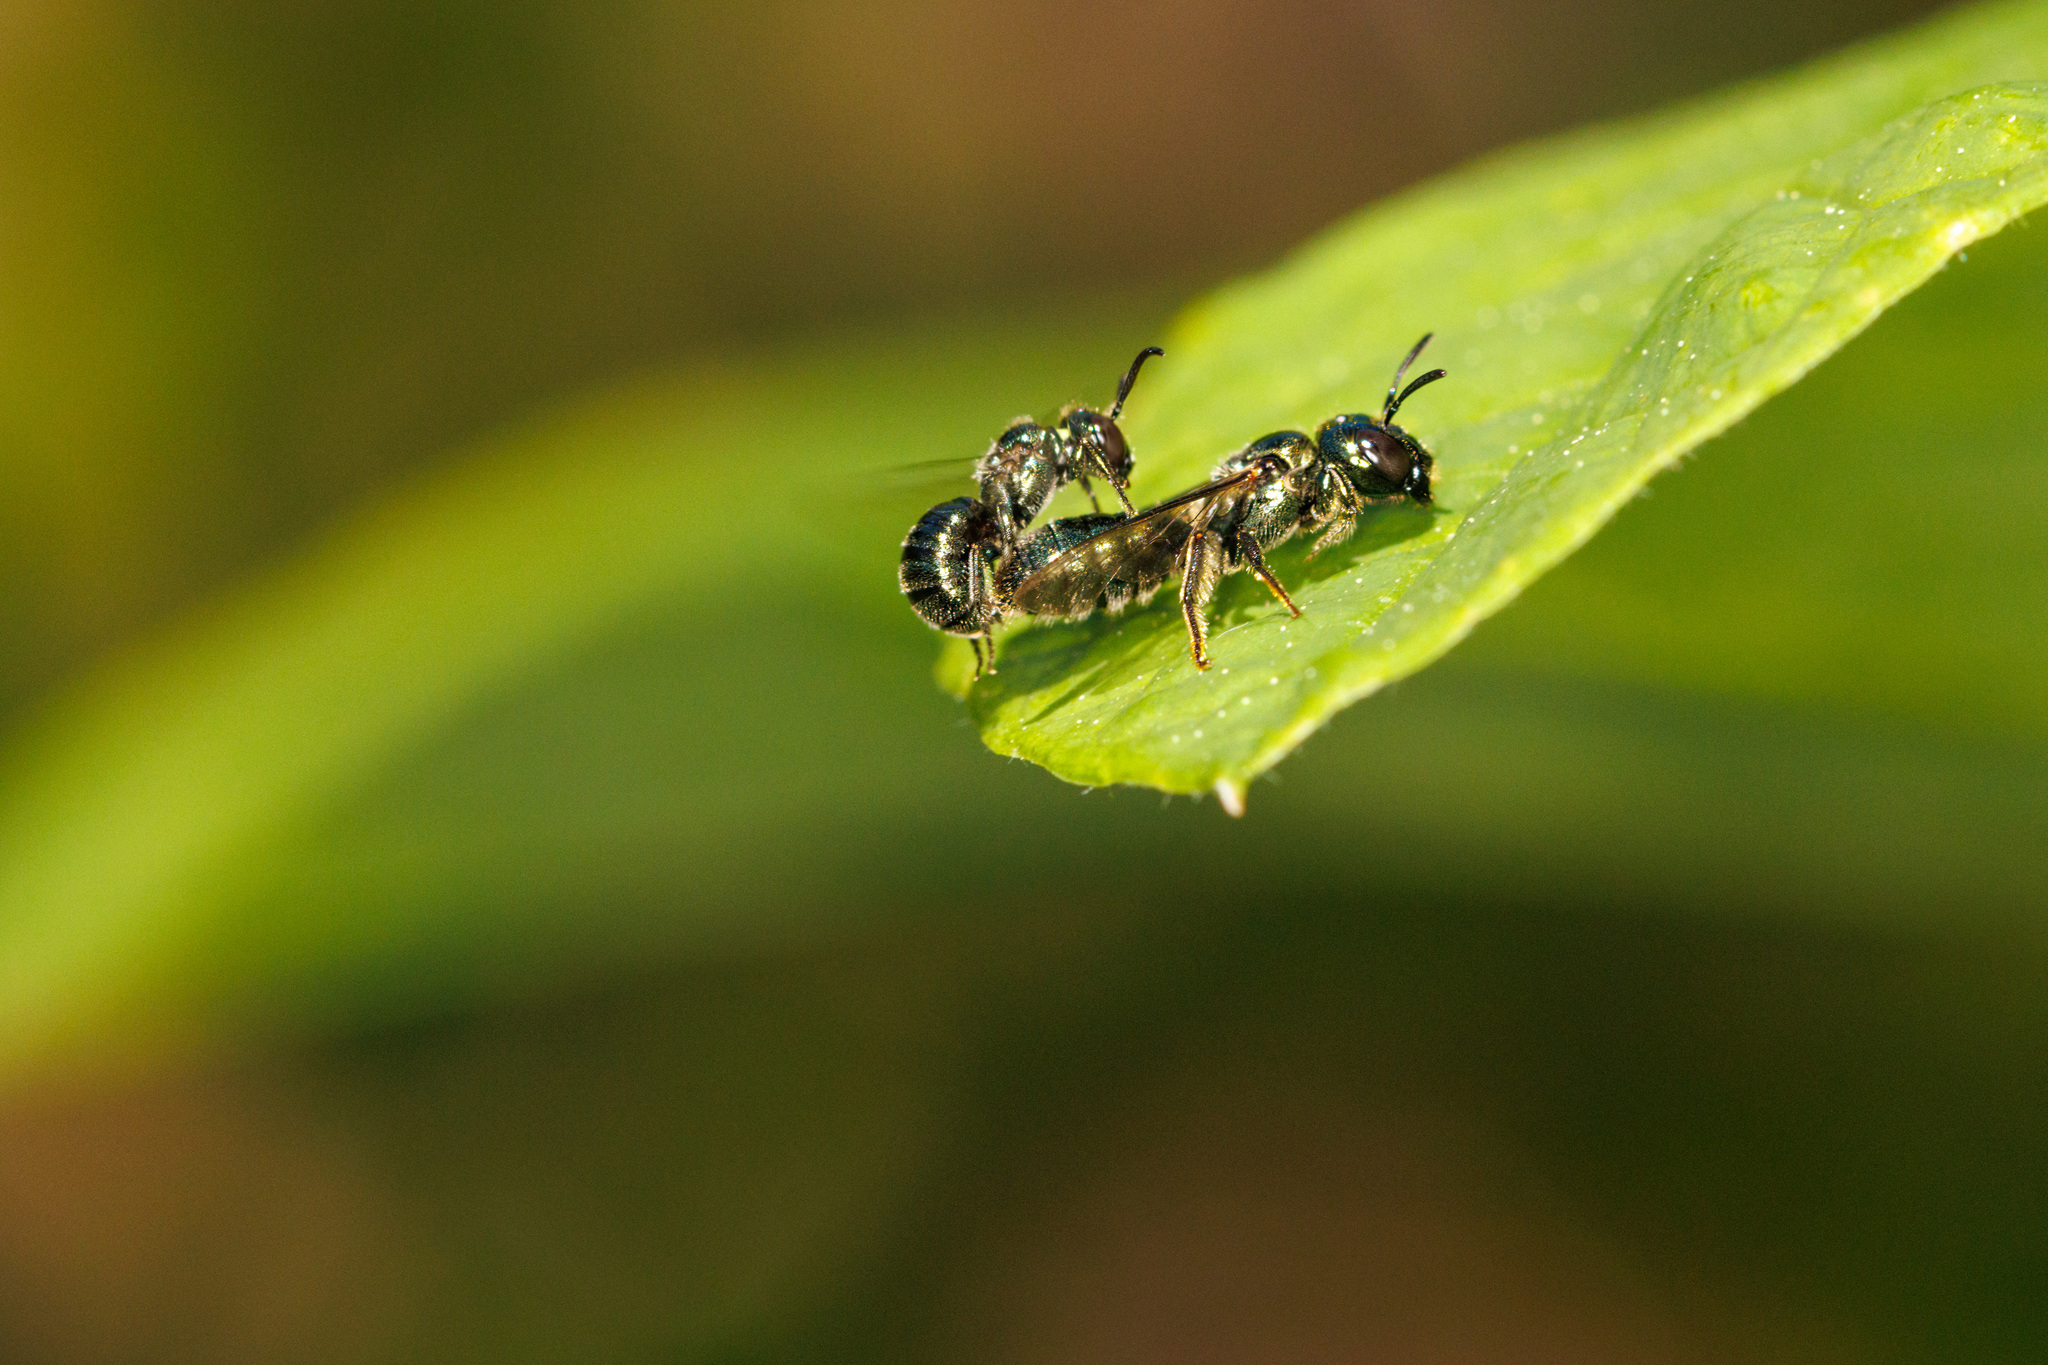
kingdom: Animalia
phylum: Arthropoda
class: Insecta
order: Hymenoptera
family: Apidae
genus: Ceratina
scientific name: Ceratina acantha
